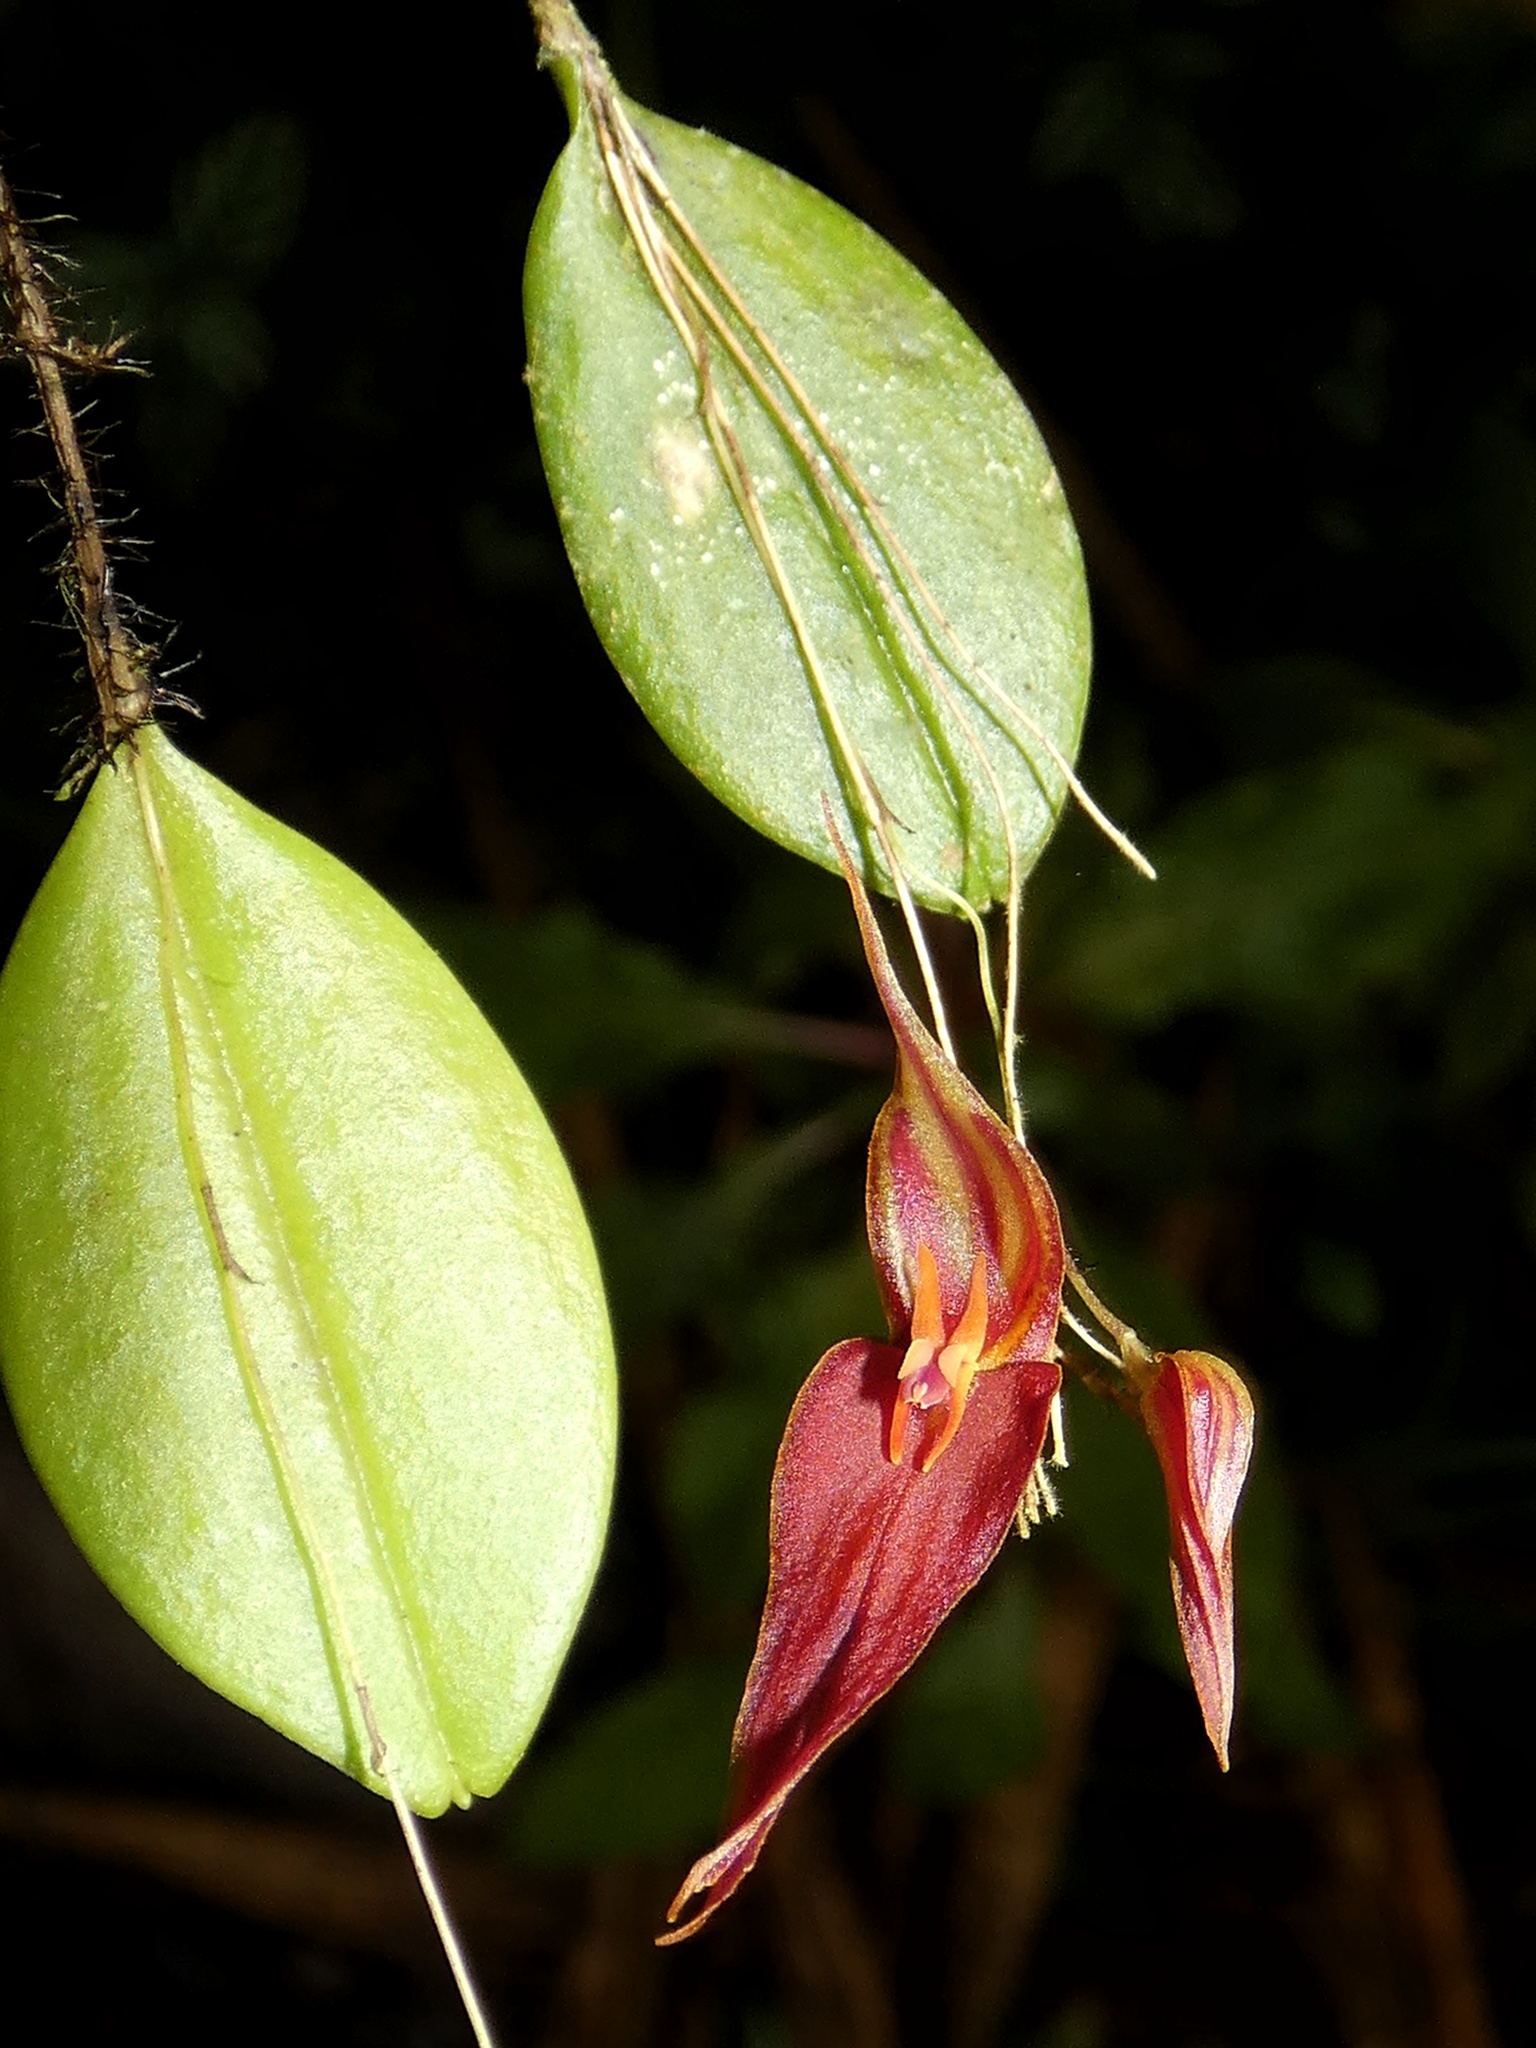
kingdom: Plantae
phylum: Tracheophyta
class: Liliopsida
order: Asparagales
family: Orchidaceae
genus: Lepanthes
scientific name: Lepanthes genetoapophantica
